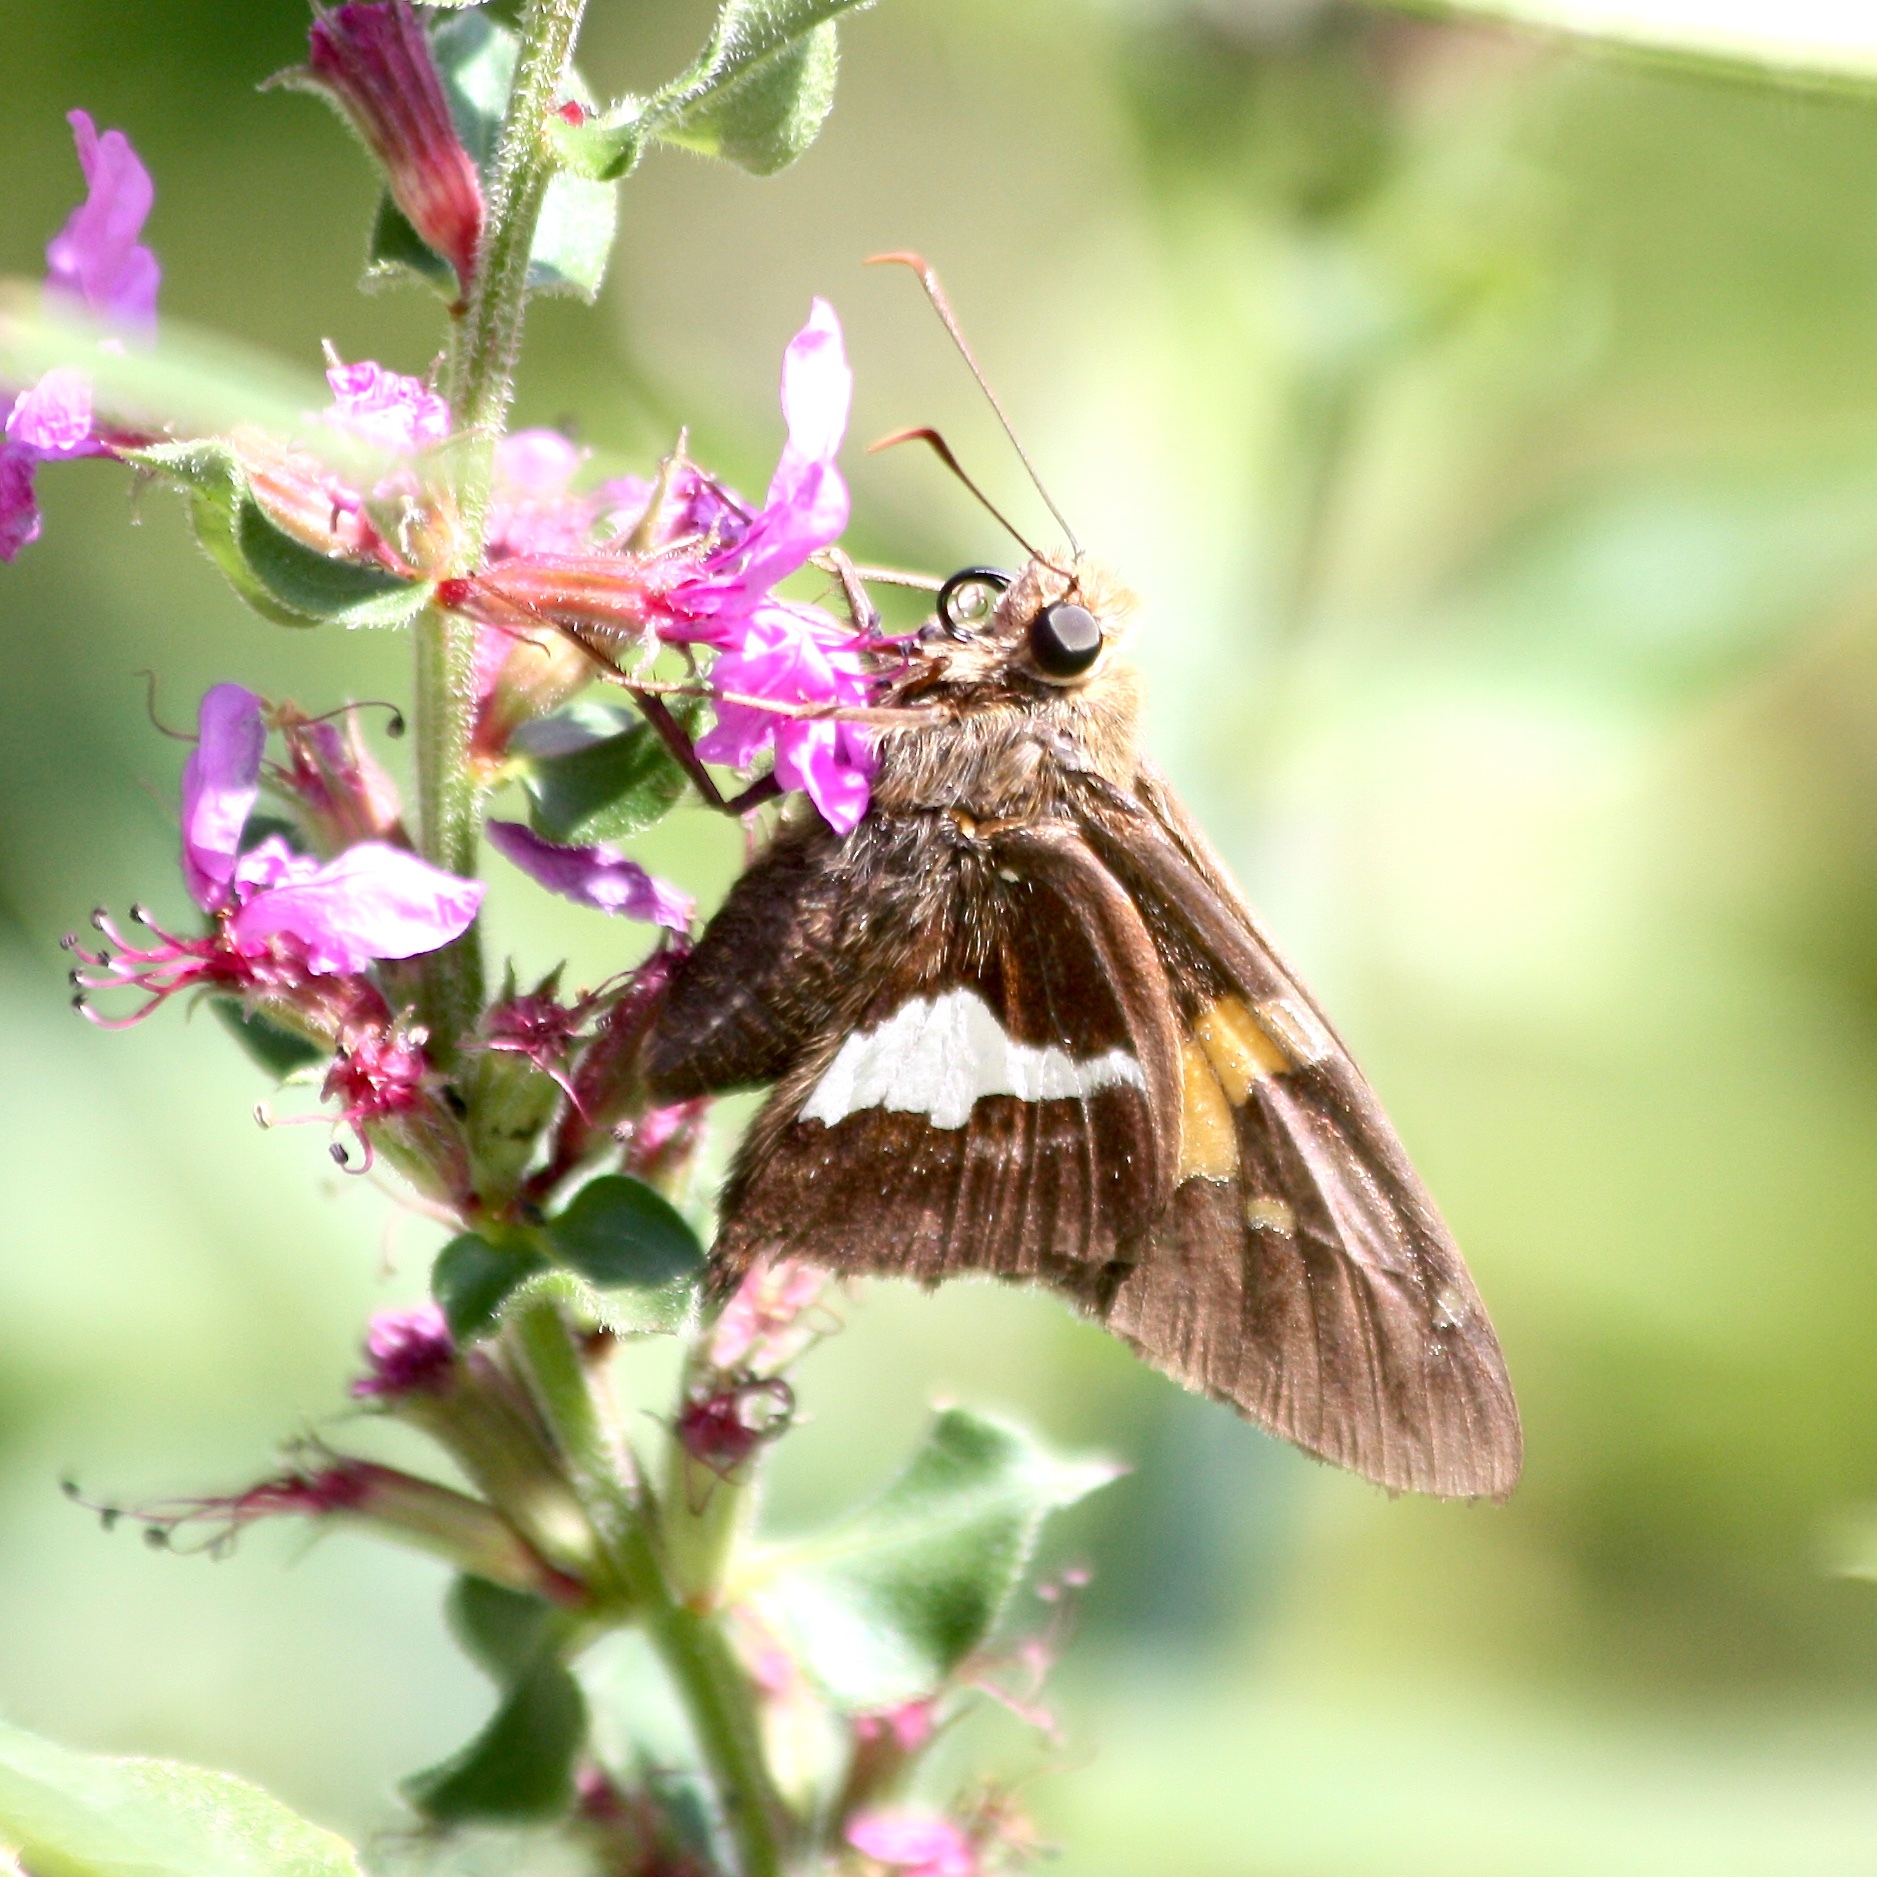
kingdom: Animalia
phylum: Arthropoda
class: Insecta
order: Lepidoptera
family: Hesperiidae
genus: Epargyreus
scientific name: Epargyreus clarus
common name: Silver-spotted skipper
